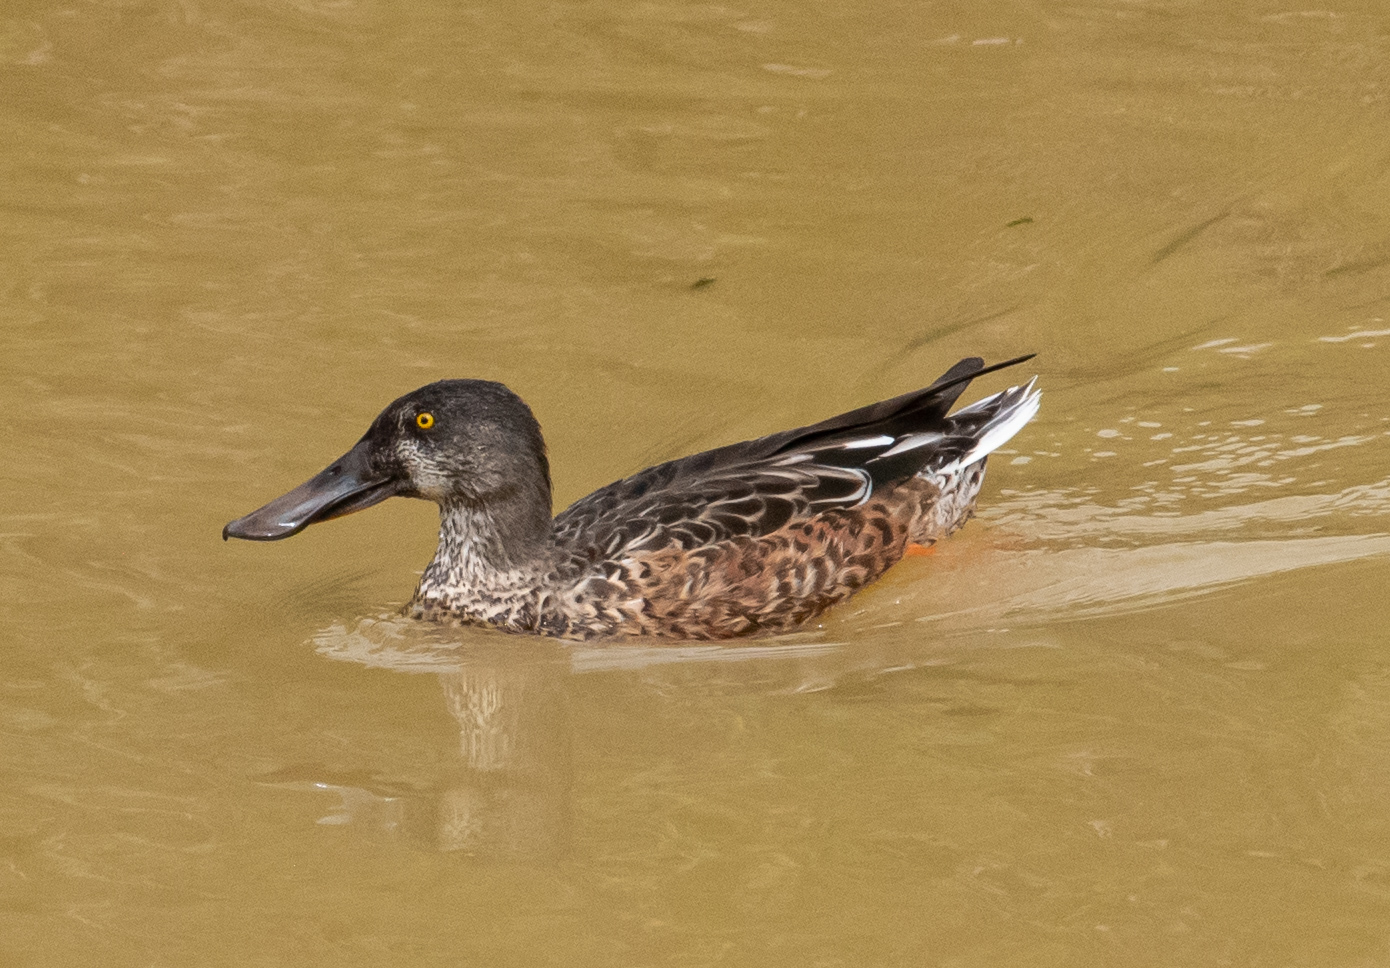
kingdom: Animalia
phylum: Chordata
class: Aves
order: Anseriformes
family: Anatidae
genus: Spatula
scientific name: Spatula clypeata
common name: Northern shoveler
